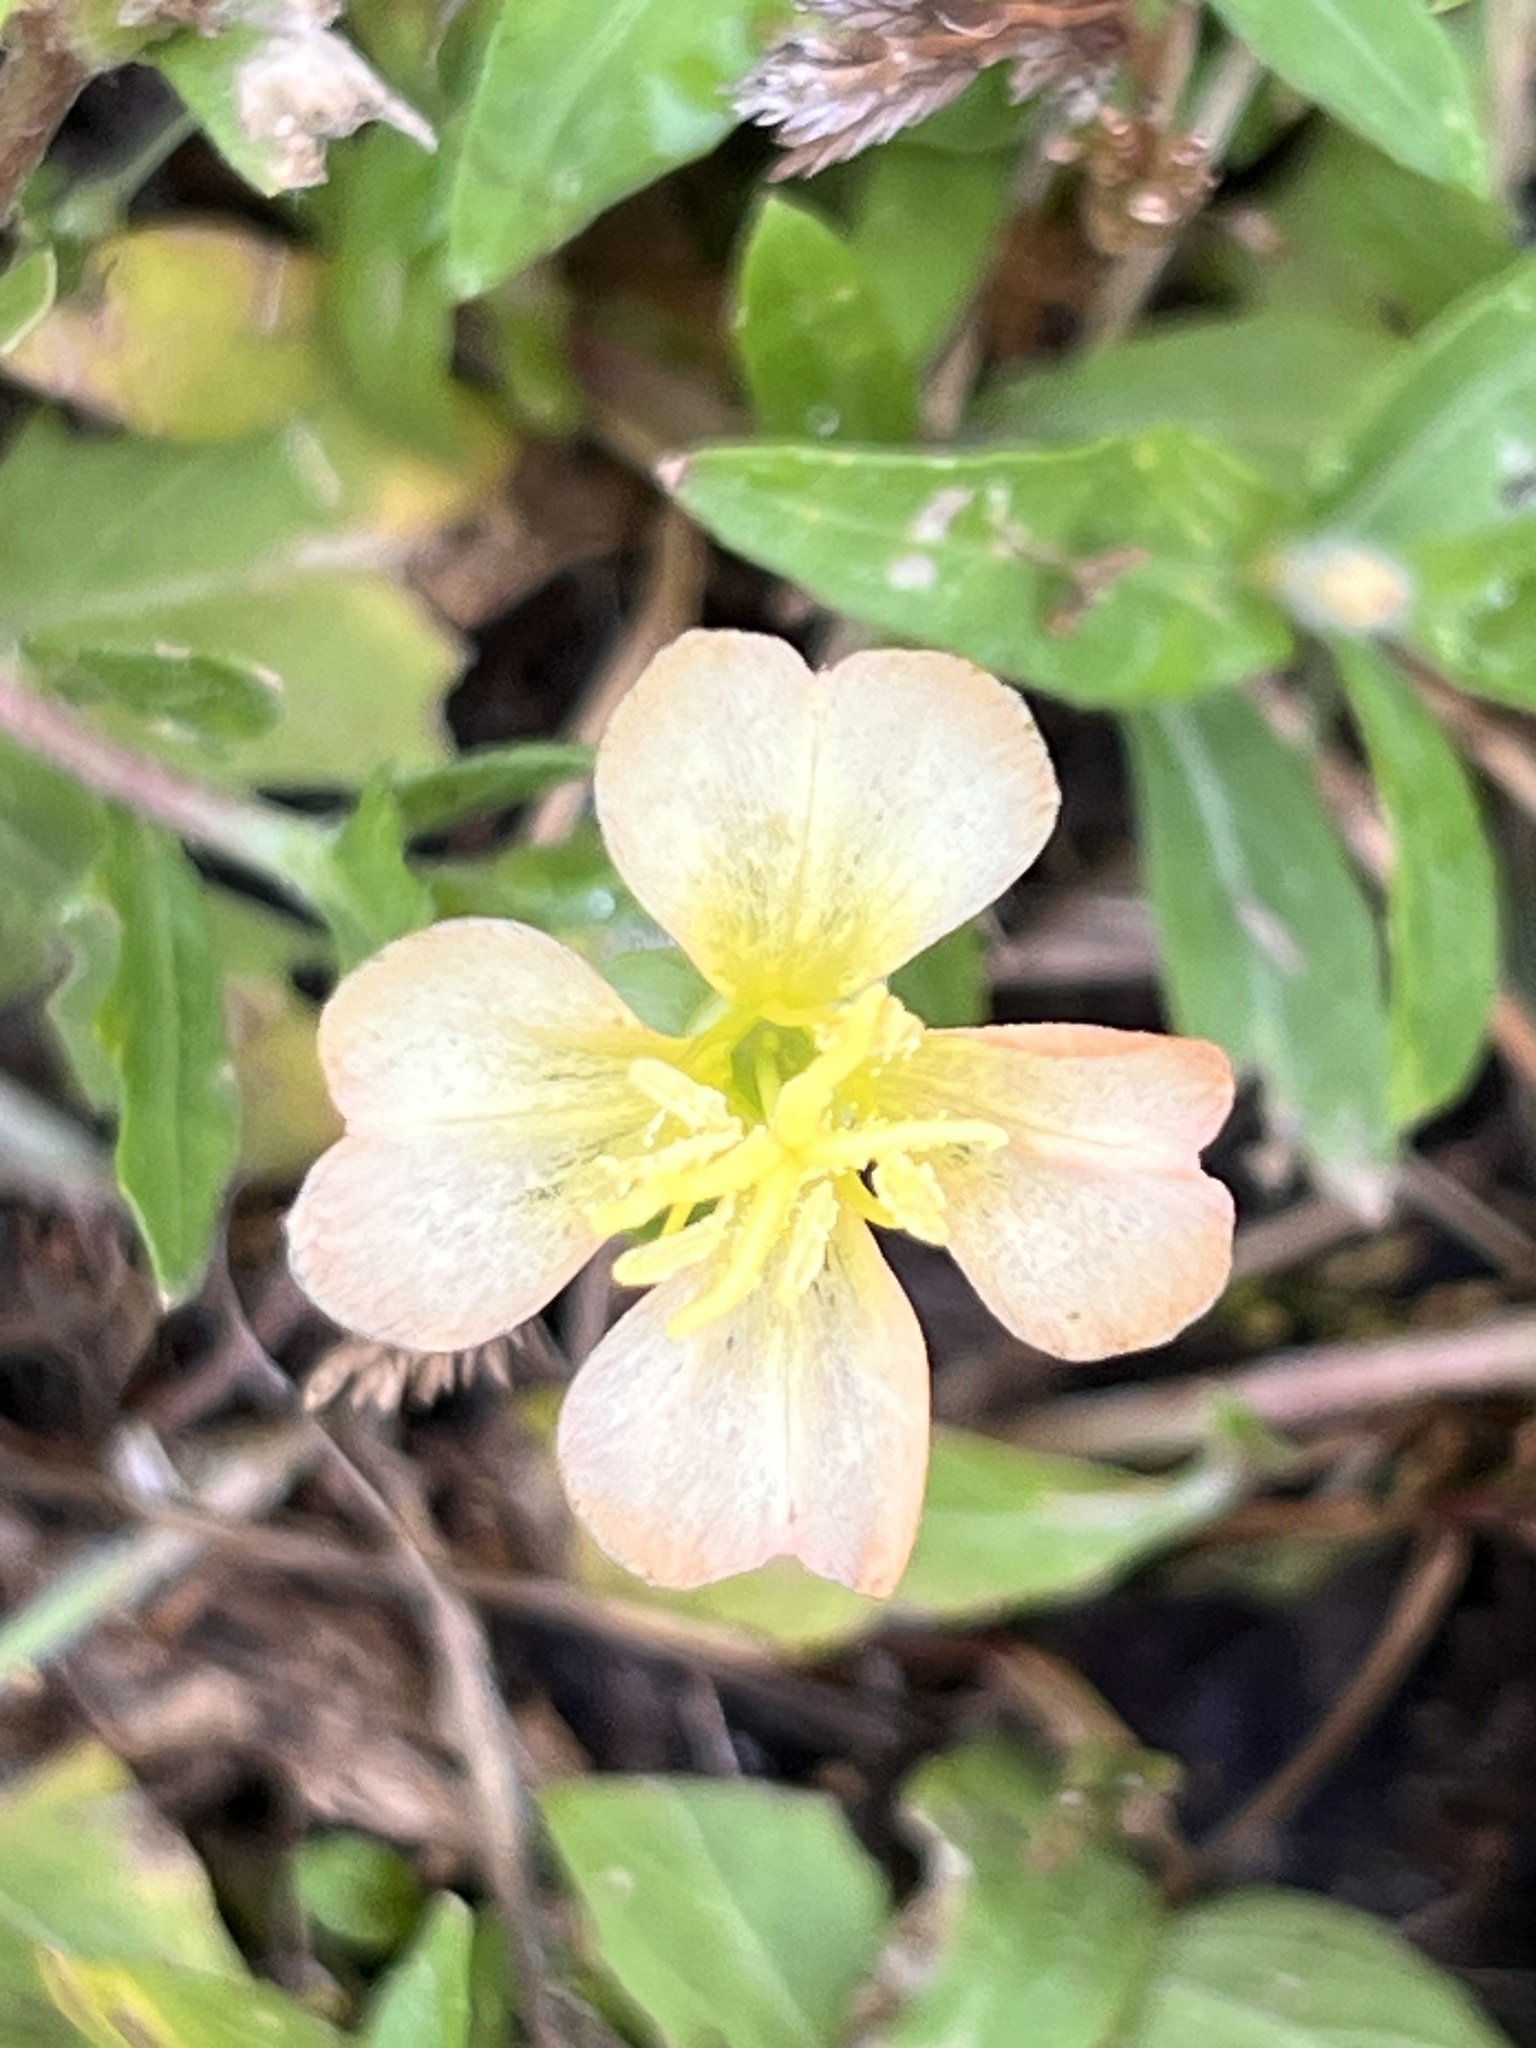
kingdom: Plantae
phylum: Tracheophyta
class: Magnoliopsida
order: Myrtales
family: Onagraceae
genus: Oenothera
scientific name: Oenothera laciniata
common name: Cut-leaved evening-primrose
